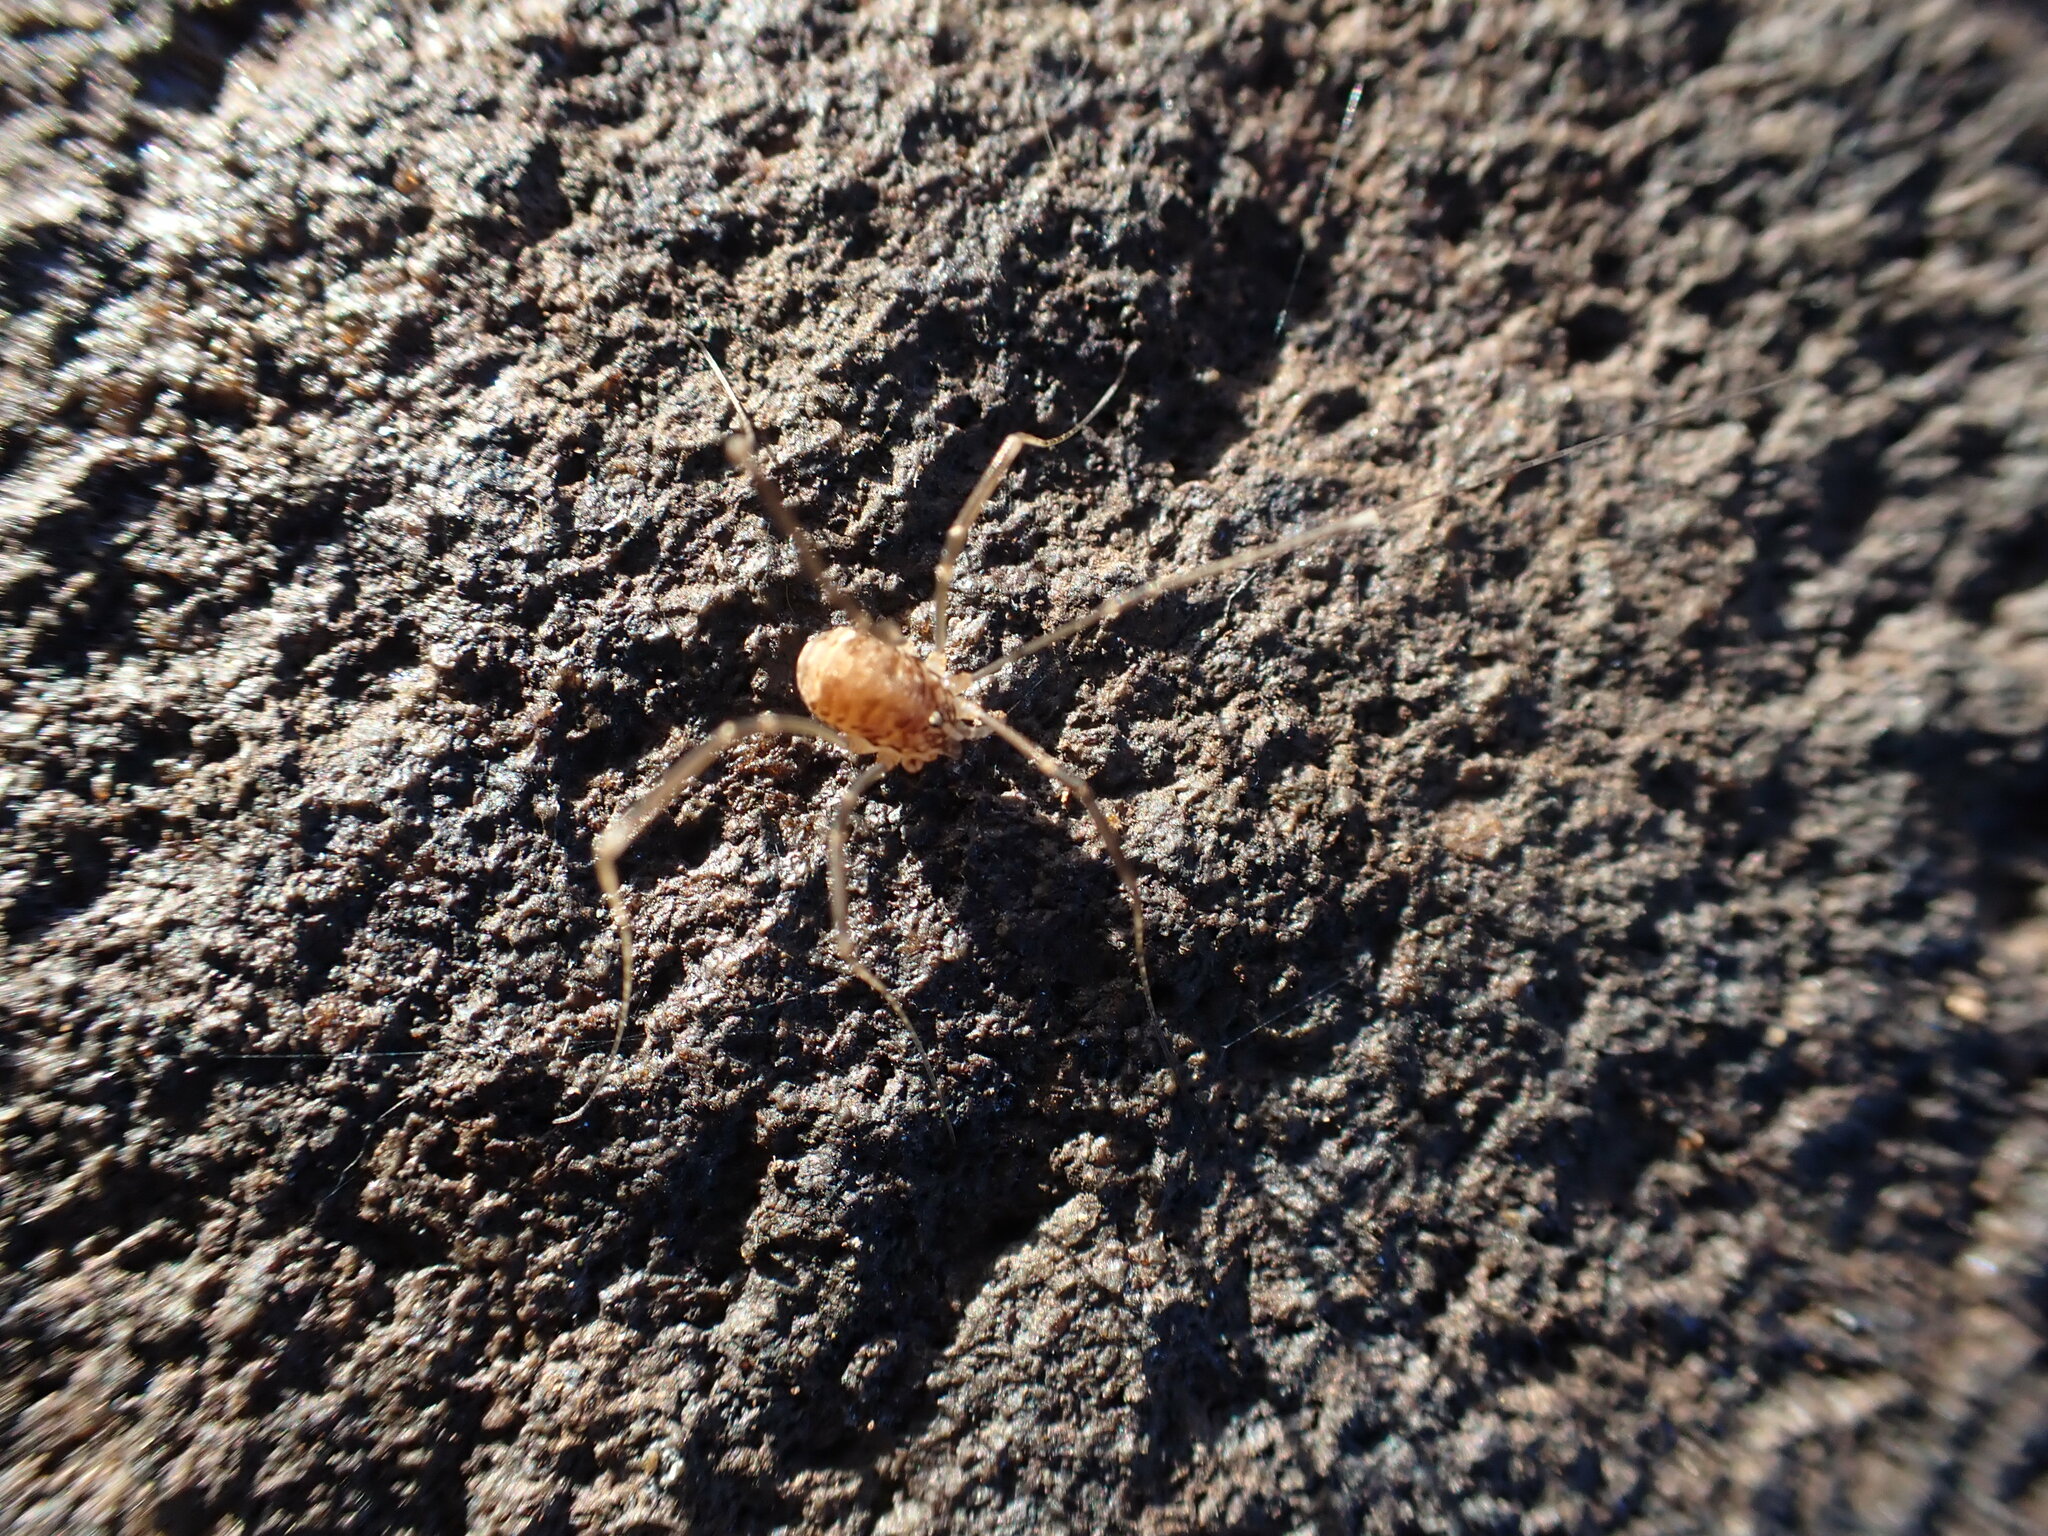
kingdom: Animalia
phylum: Arthropoda
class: Arachnida
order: Opiliones
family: Sclerosomatidae
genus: Nelima
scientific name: Nelima doriae
